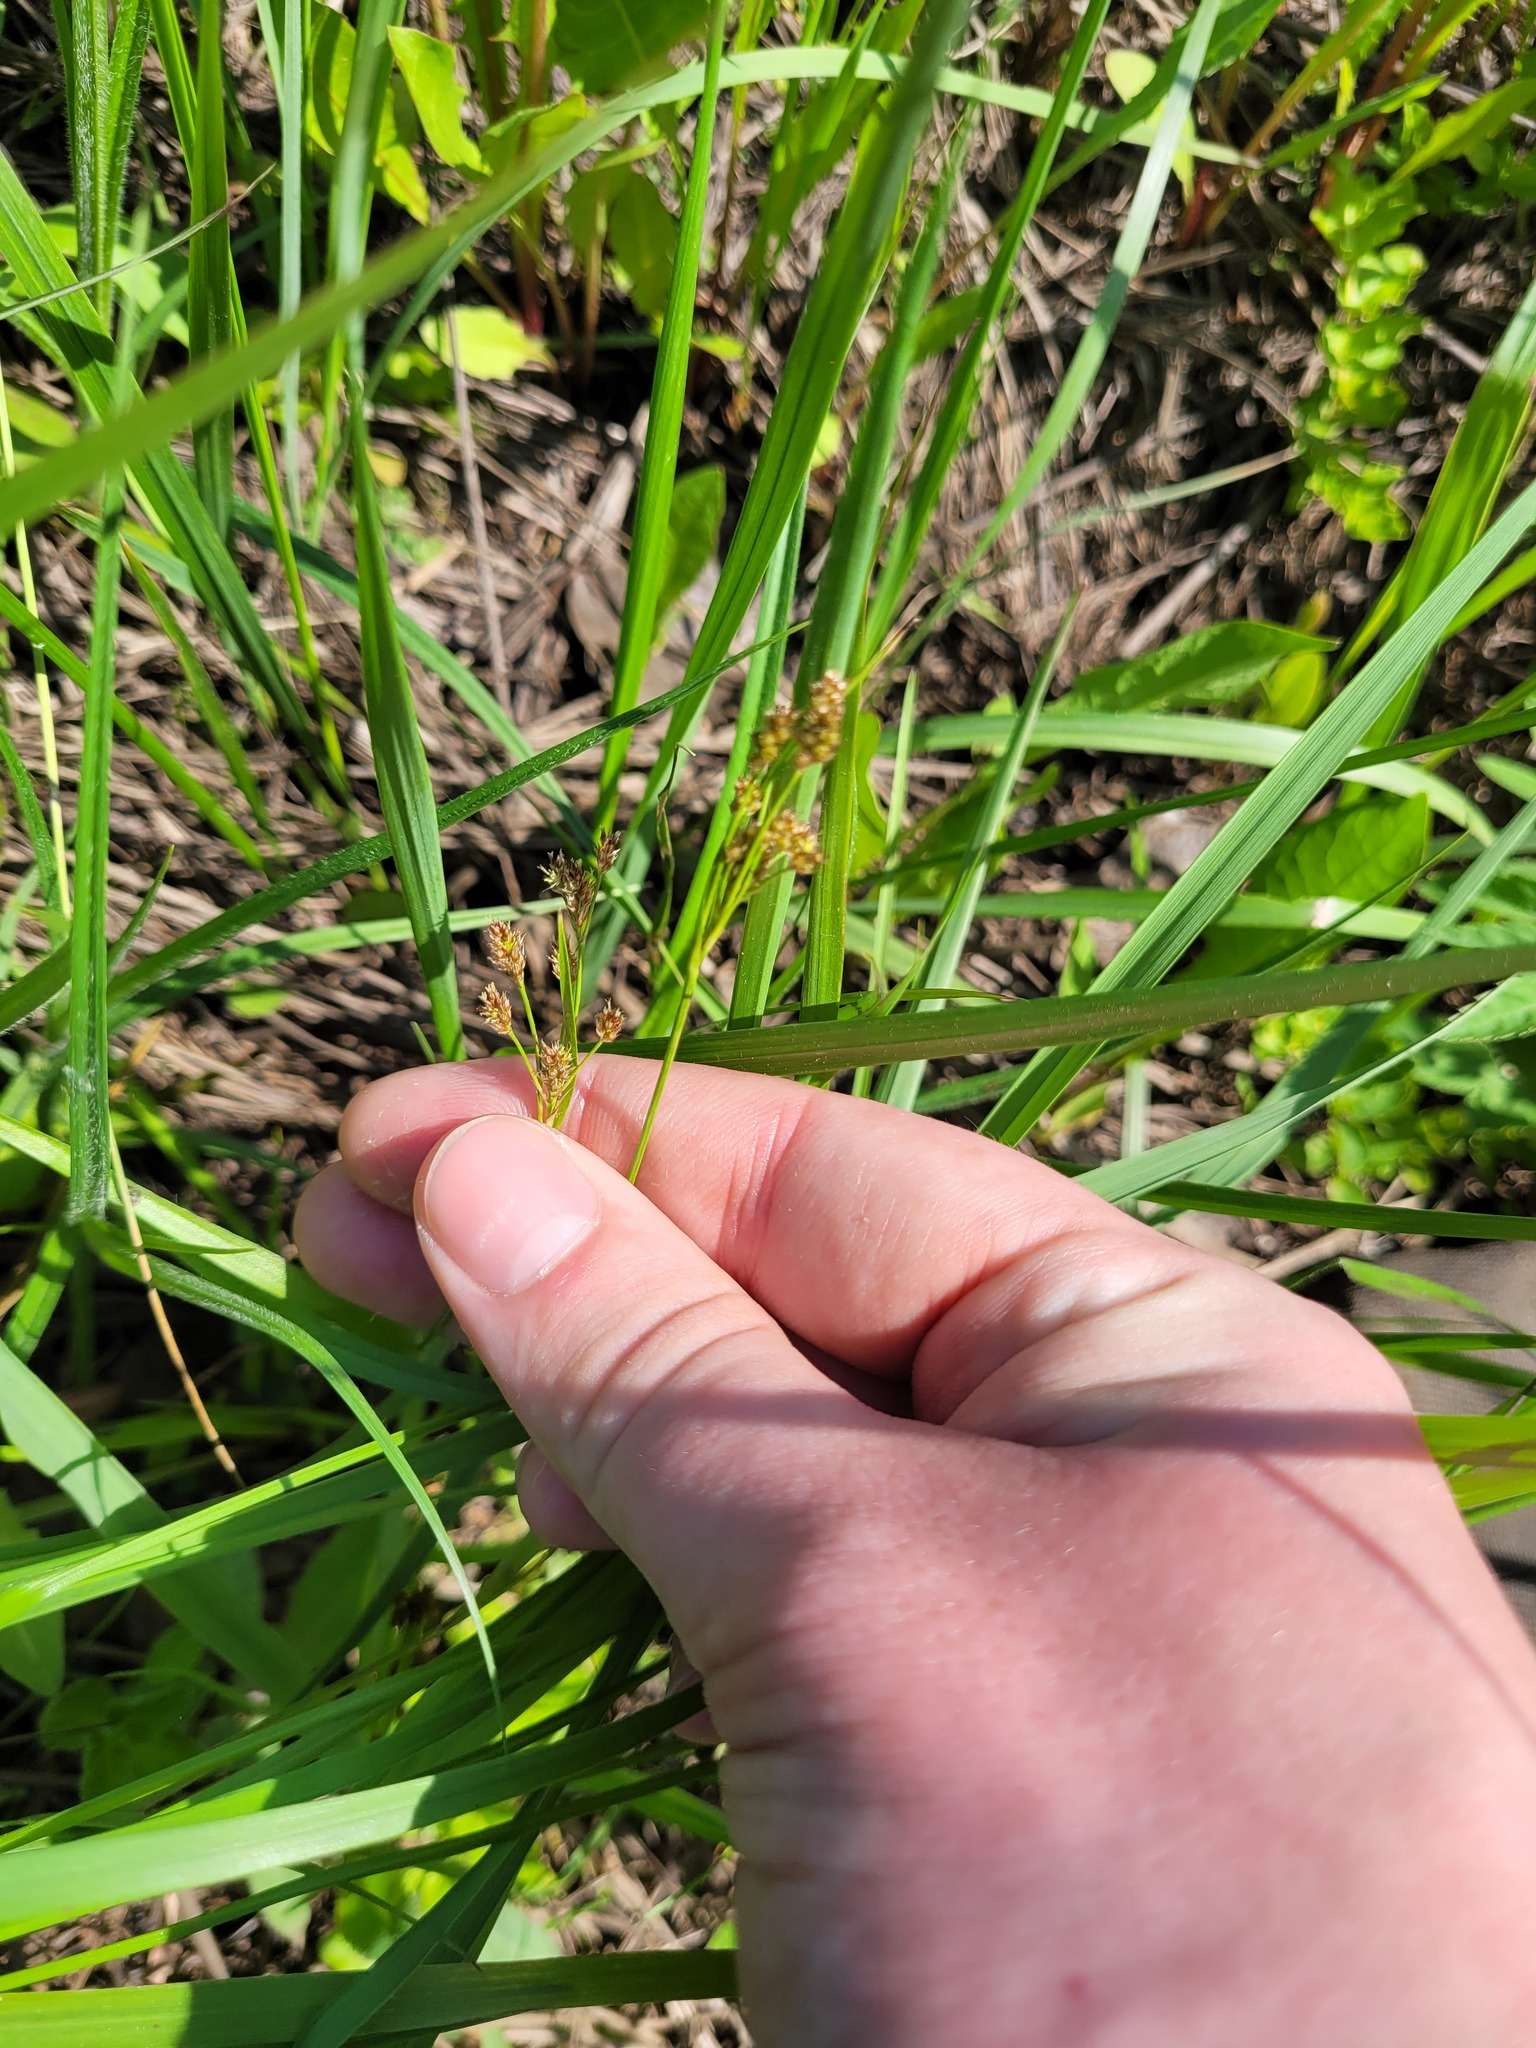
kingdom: Plantae
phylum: Tracheophyta
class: Liliopsida
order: Poales
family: Juncaceae
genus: Luzula
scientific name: Luzula pallescens
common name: Fen wood-rush
